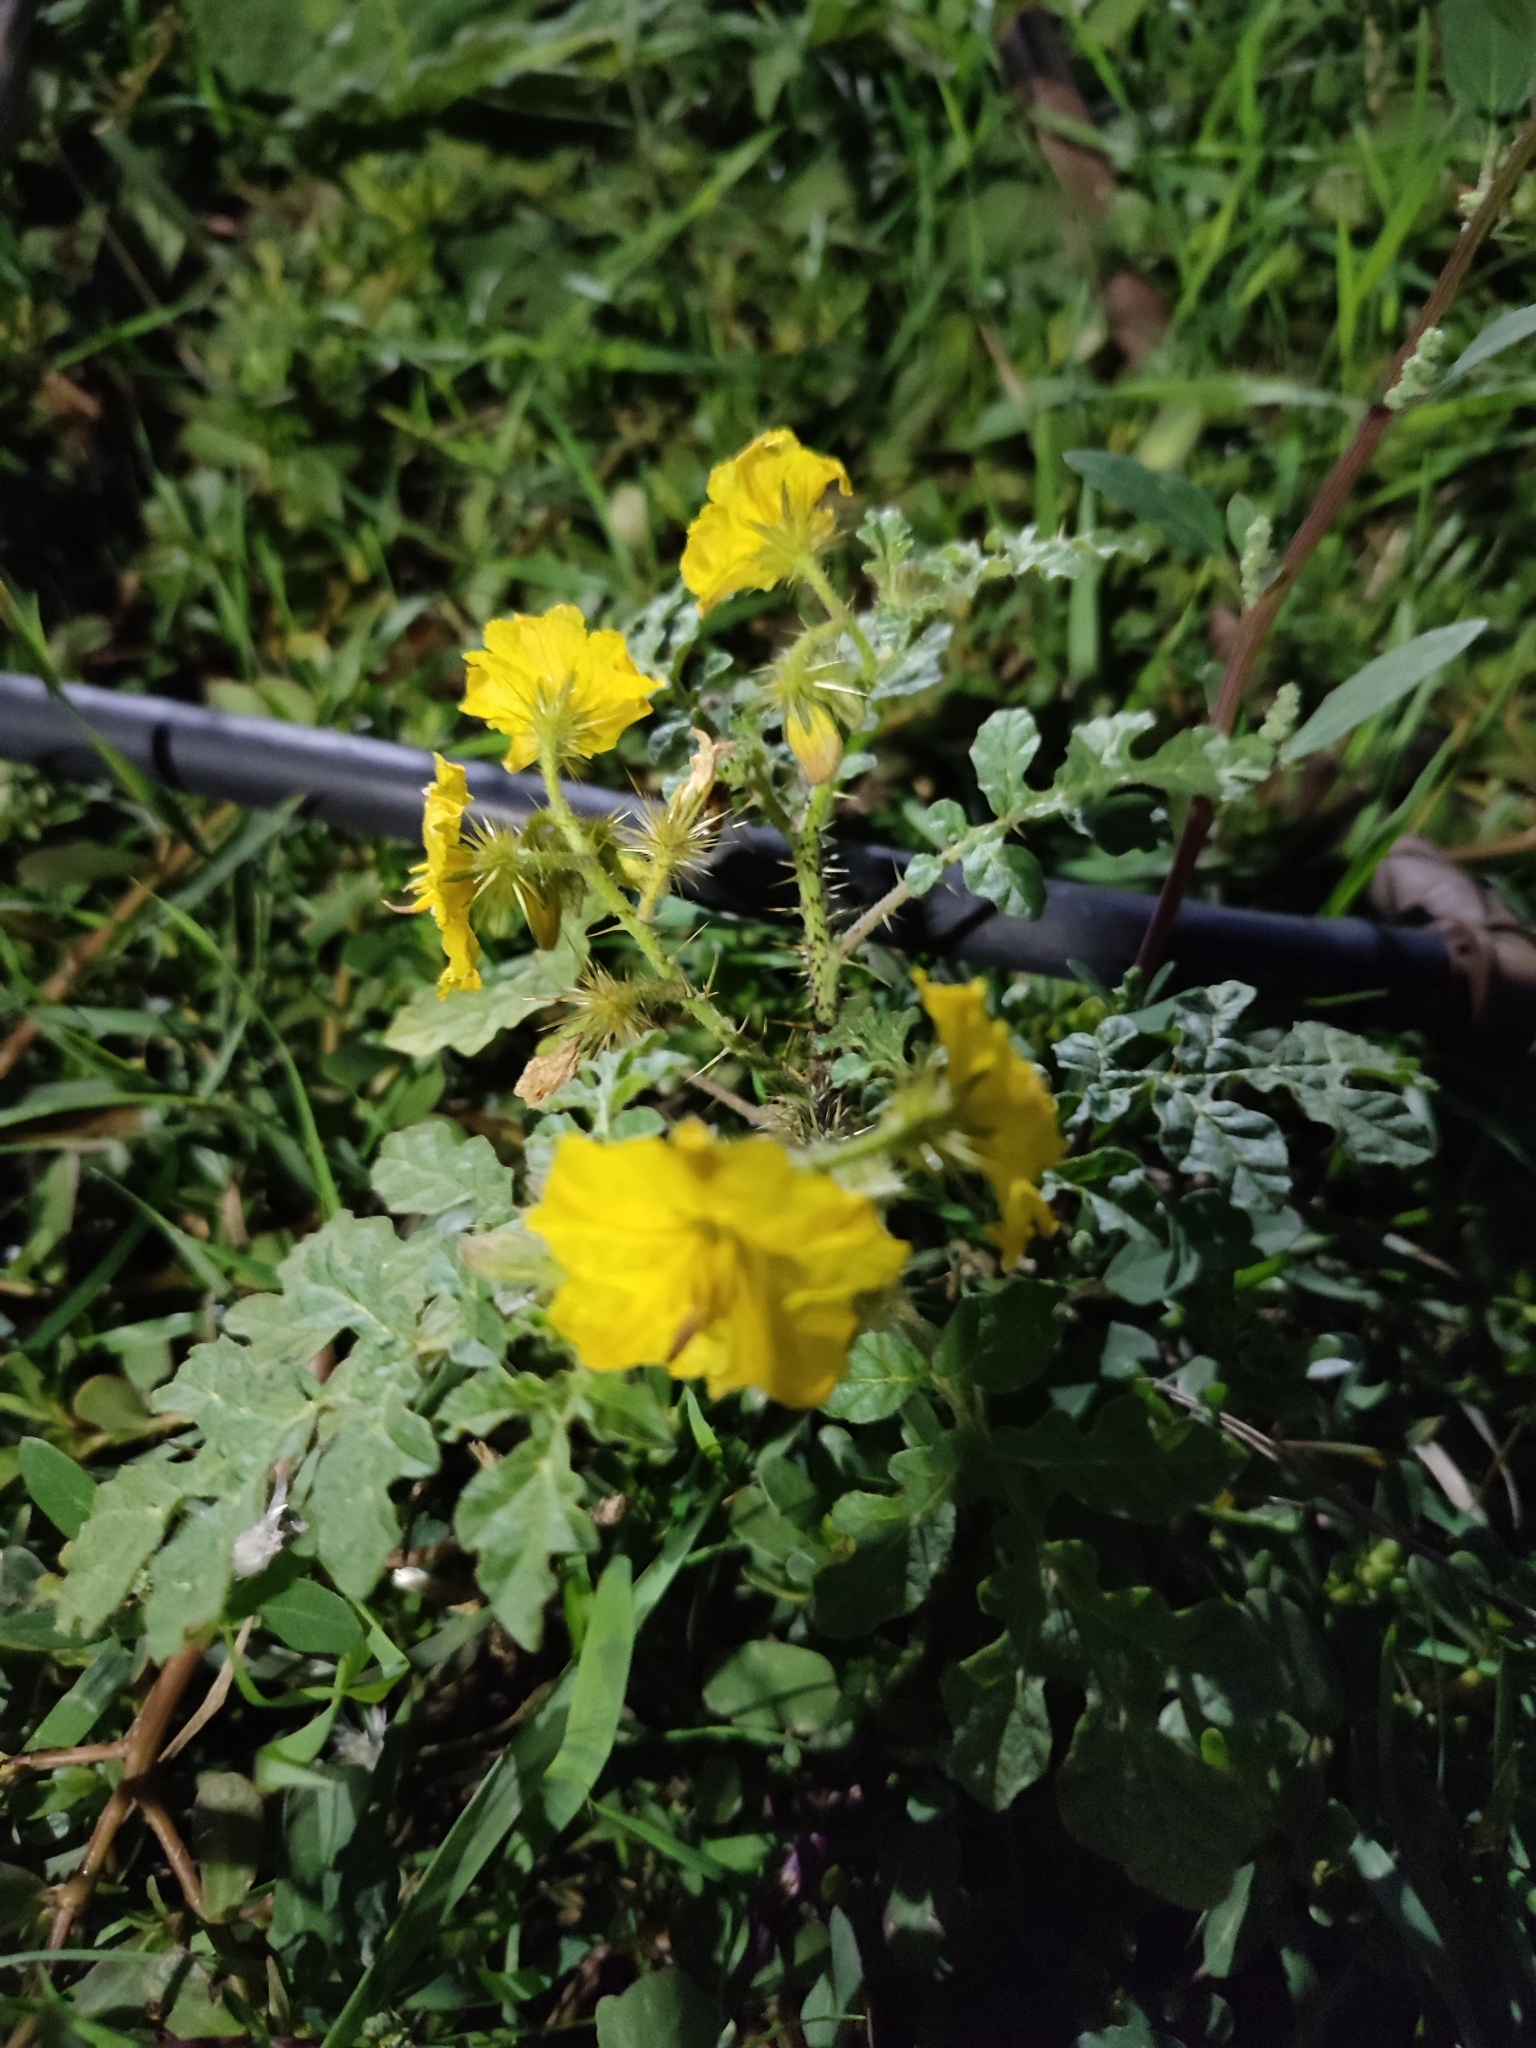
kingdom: Plantae
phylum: Tracheophyta
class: Magnoliopsida
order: Solanales
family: Solanaceae
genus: Solanum
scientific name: Solanum angustifolium
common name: Buffalobur nightshade
